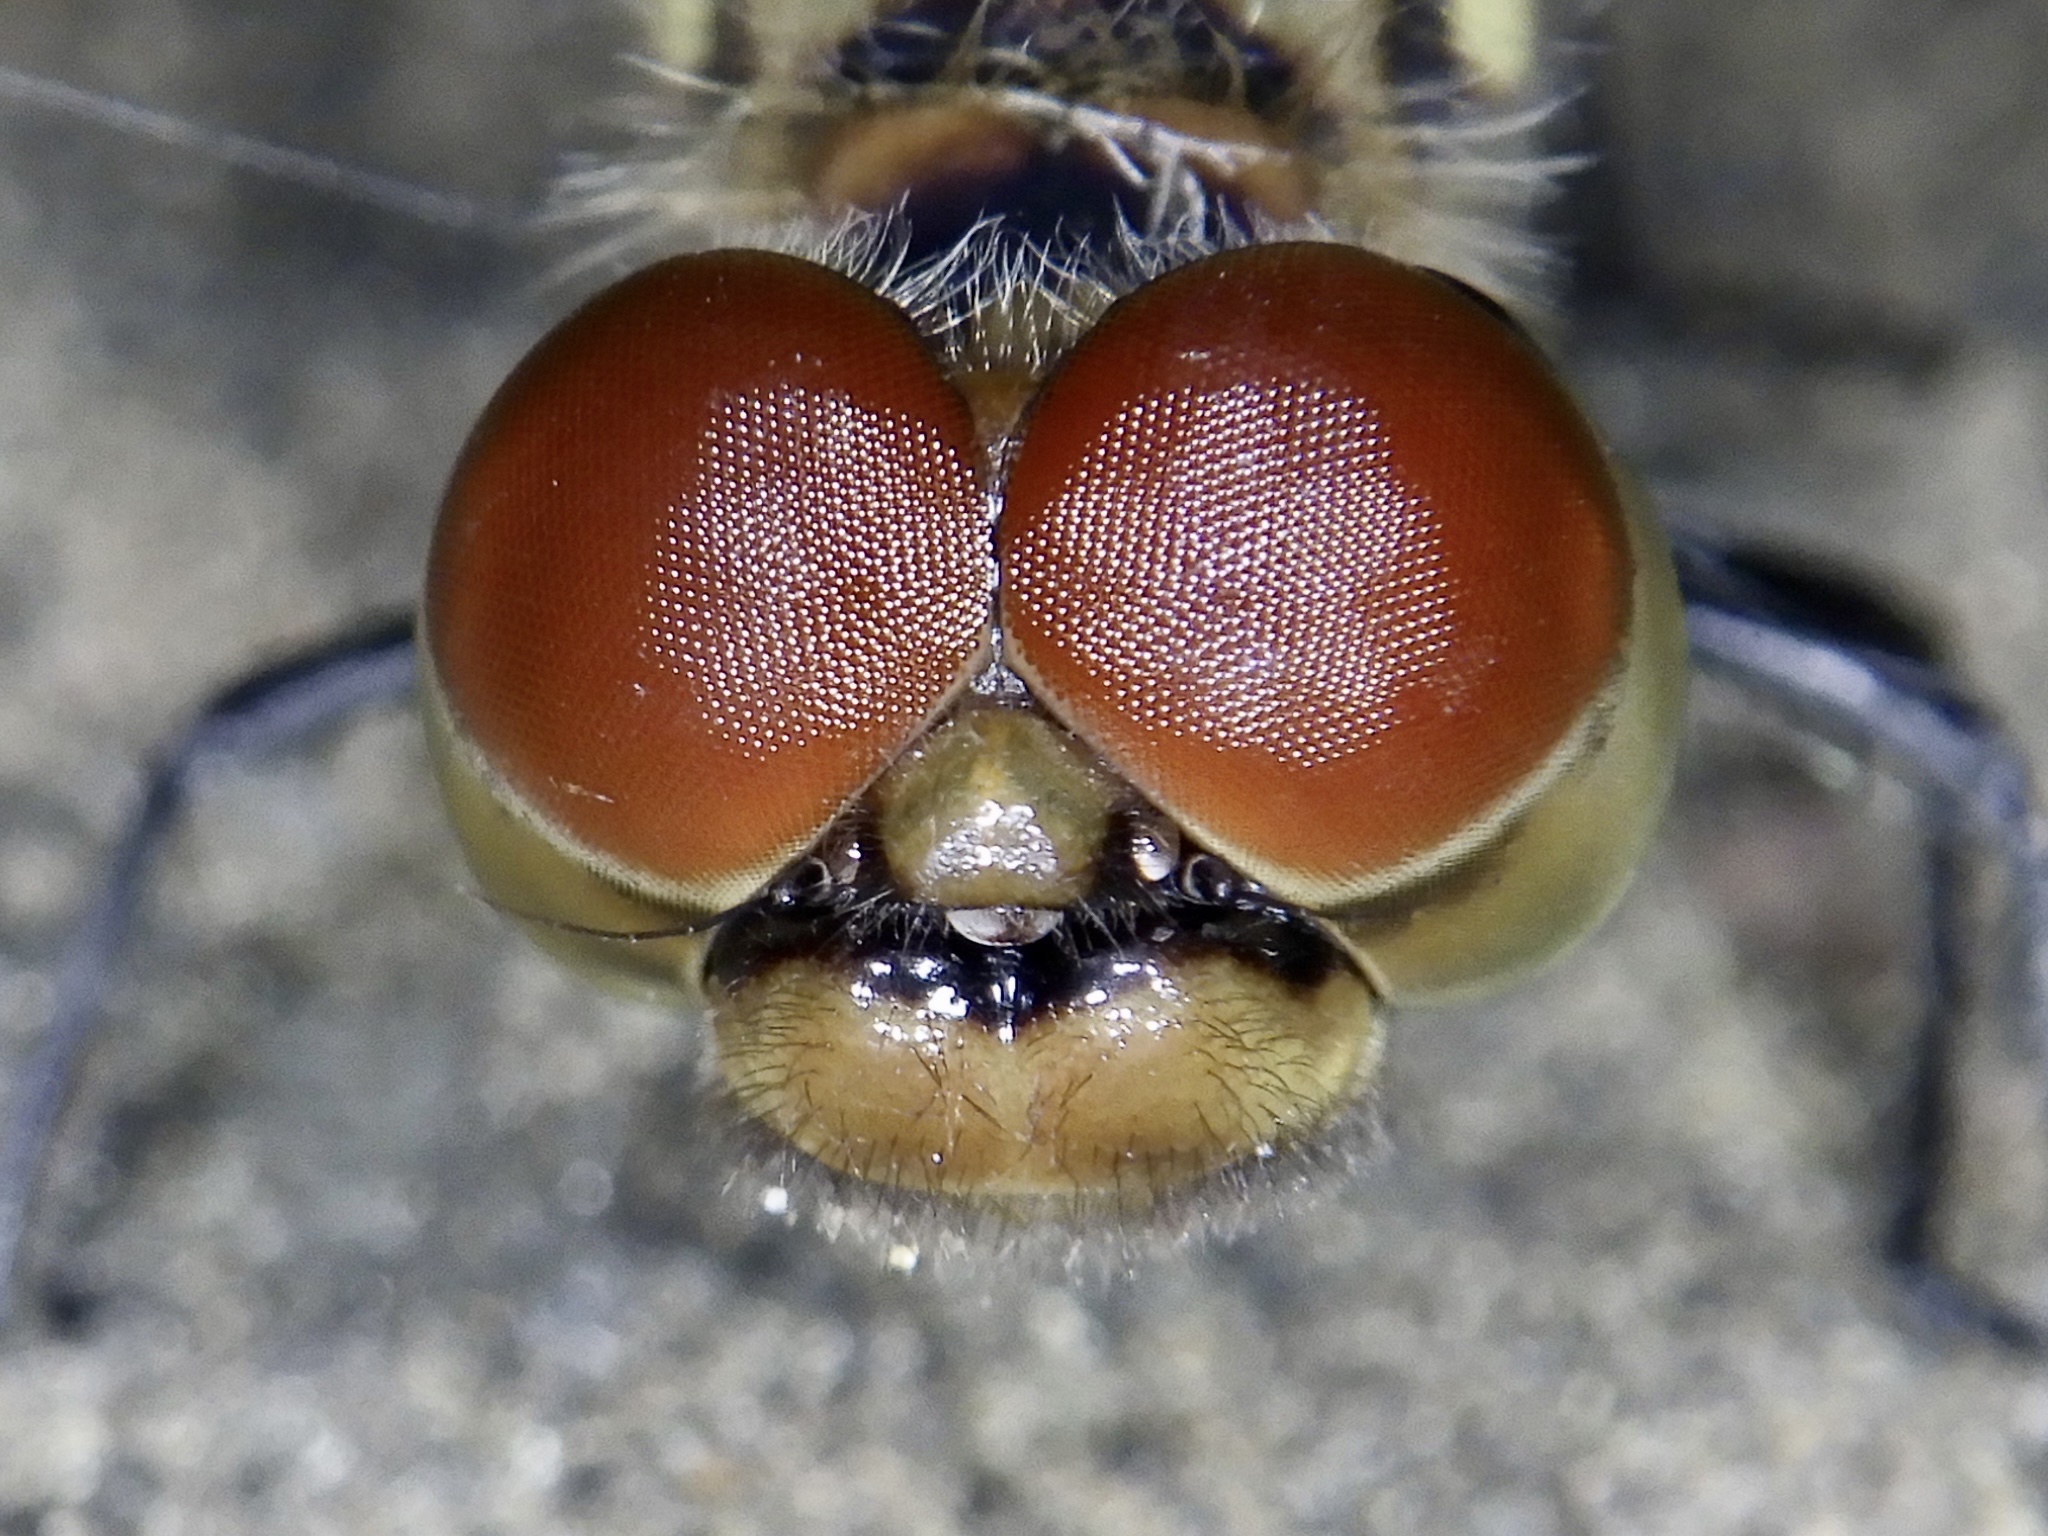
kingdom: Animalia
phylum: Arthropoda
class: Insecta
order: Odonata
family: Libellulidae
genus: Sympetrum
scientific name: Sympetrum darwinianum
